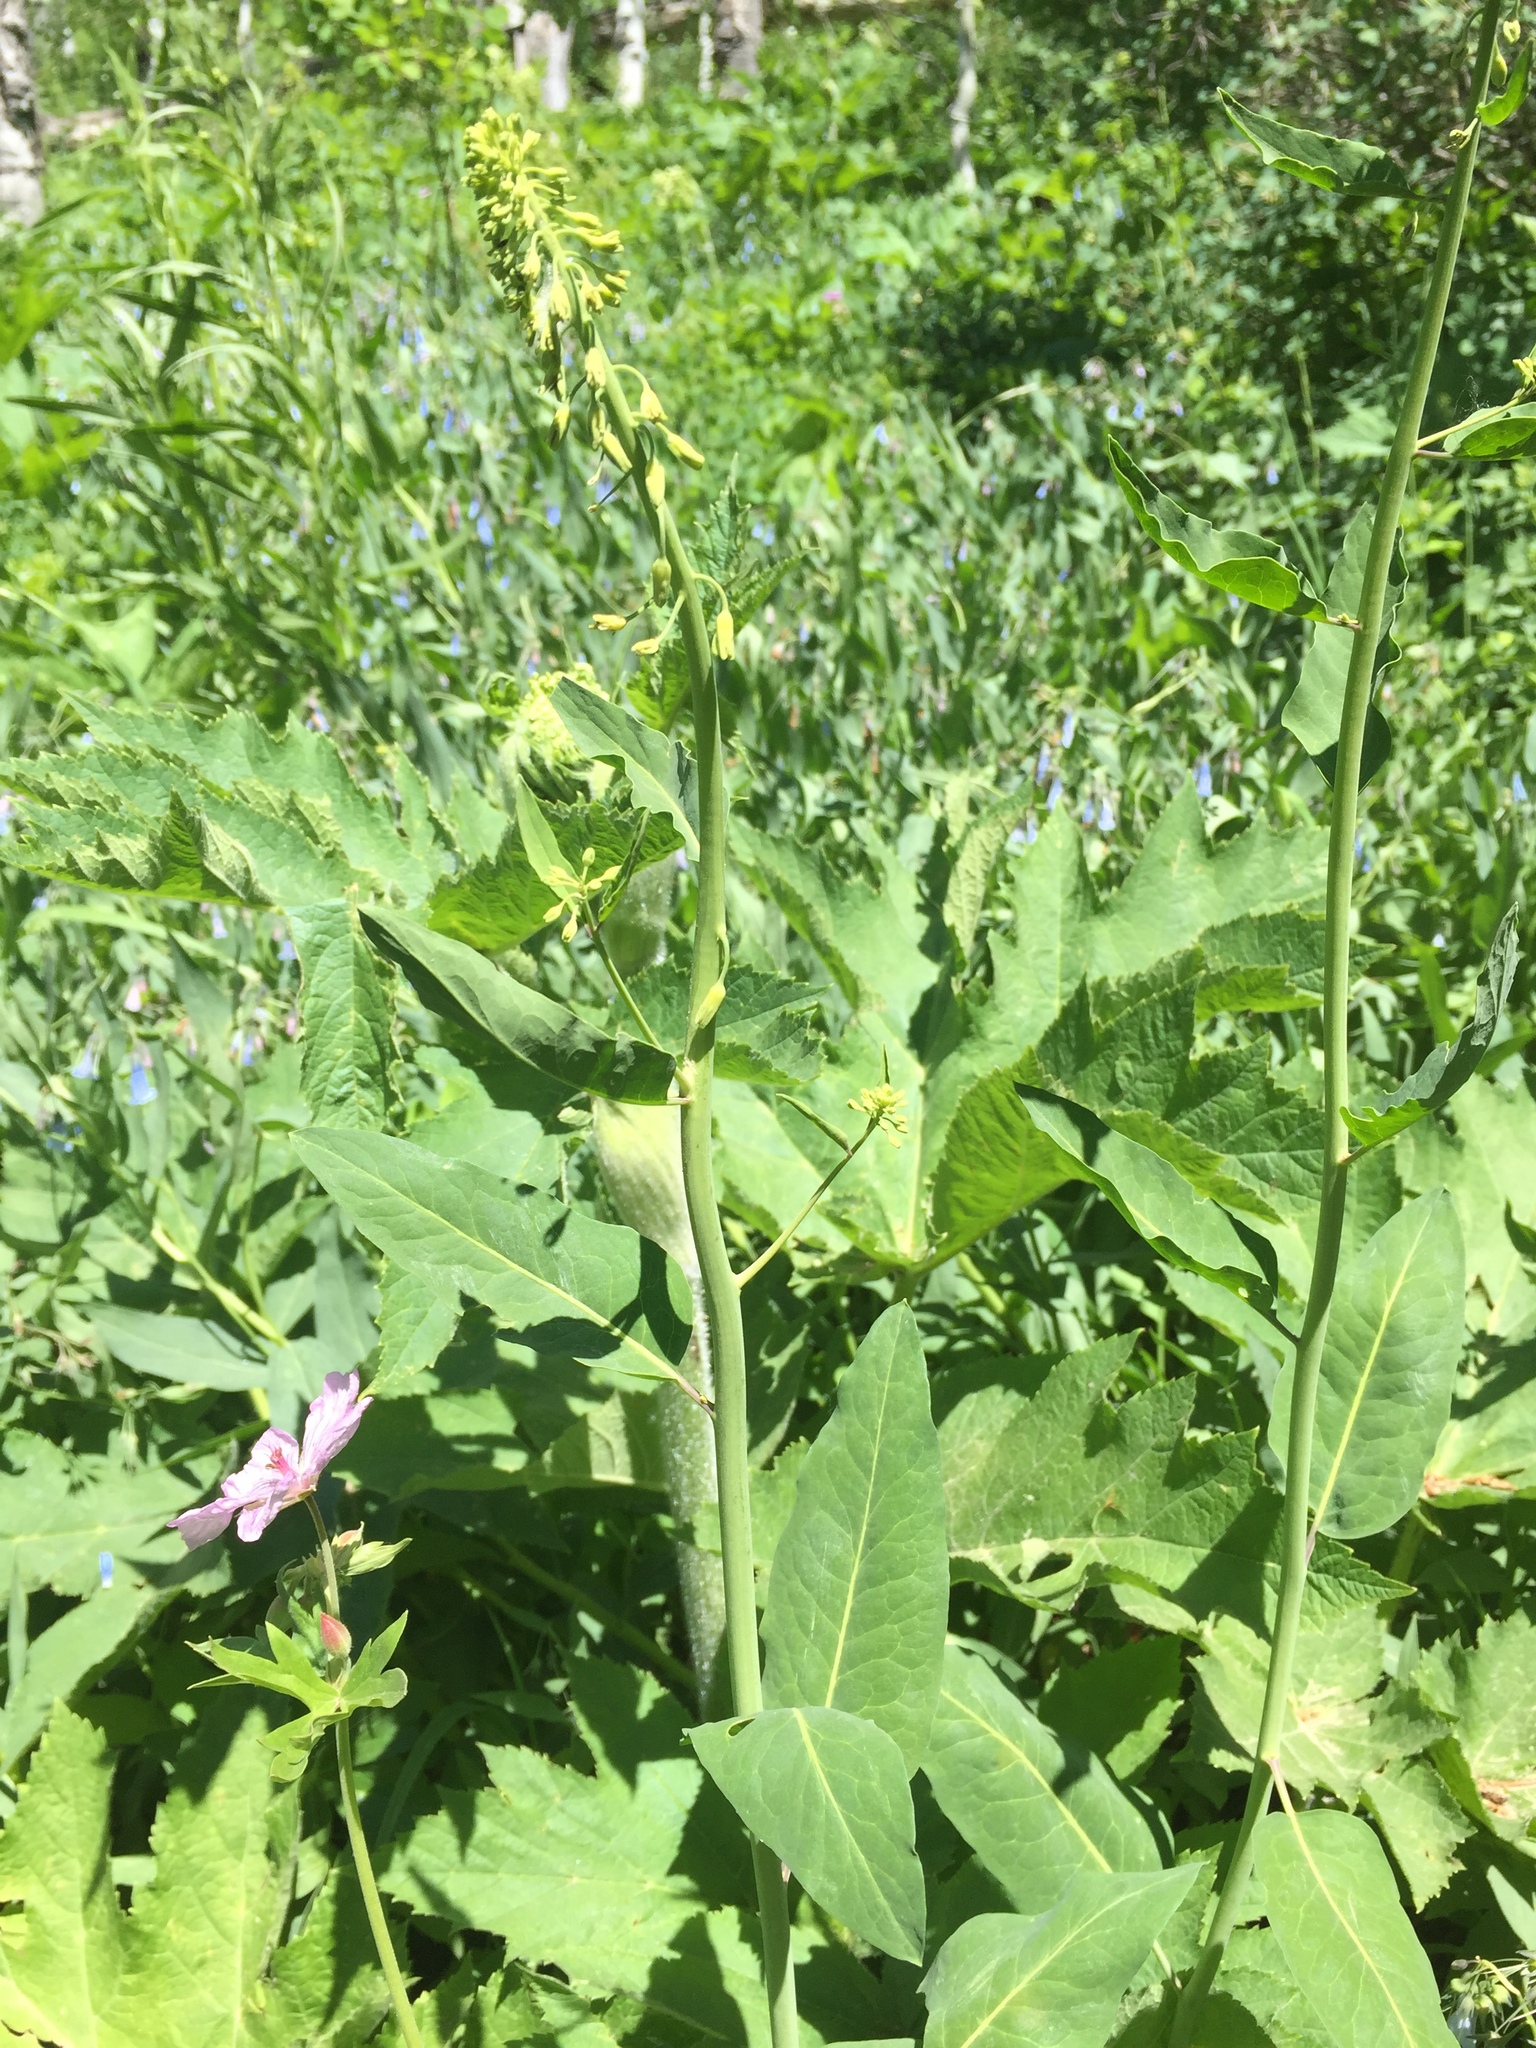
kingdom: Plantae
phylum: Tracheophyta
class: Magnoliopsida
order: Brassicales
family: Brassicaceae
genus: Chlorocrambe
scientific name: Chlorocrambe hastata
